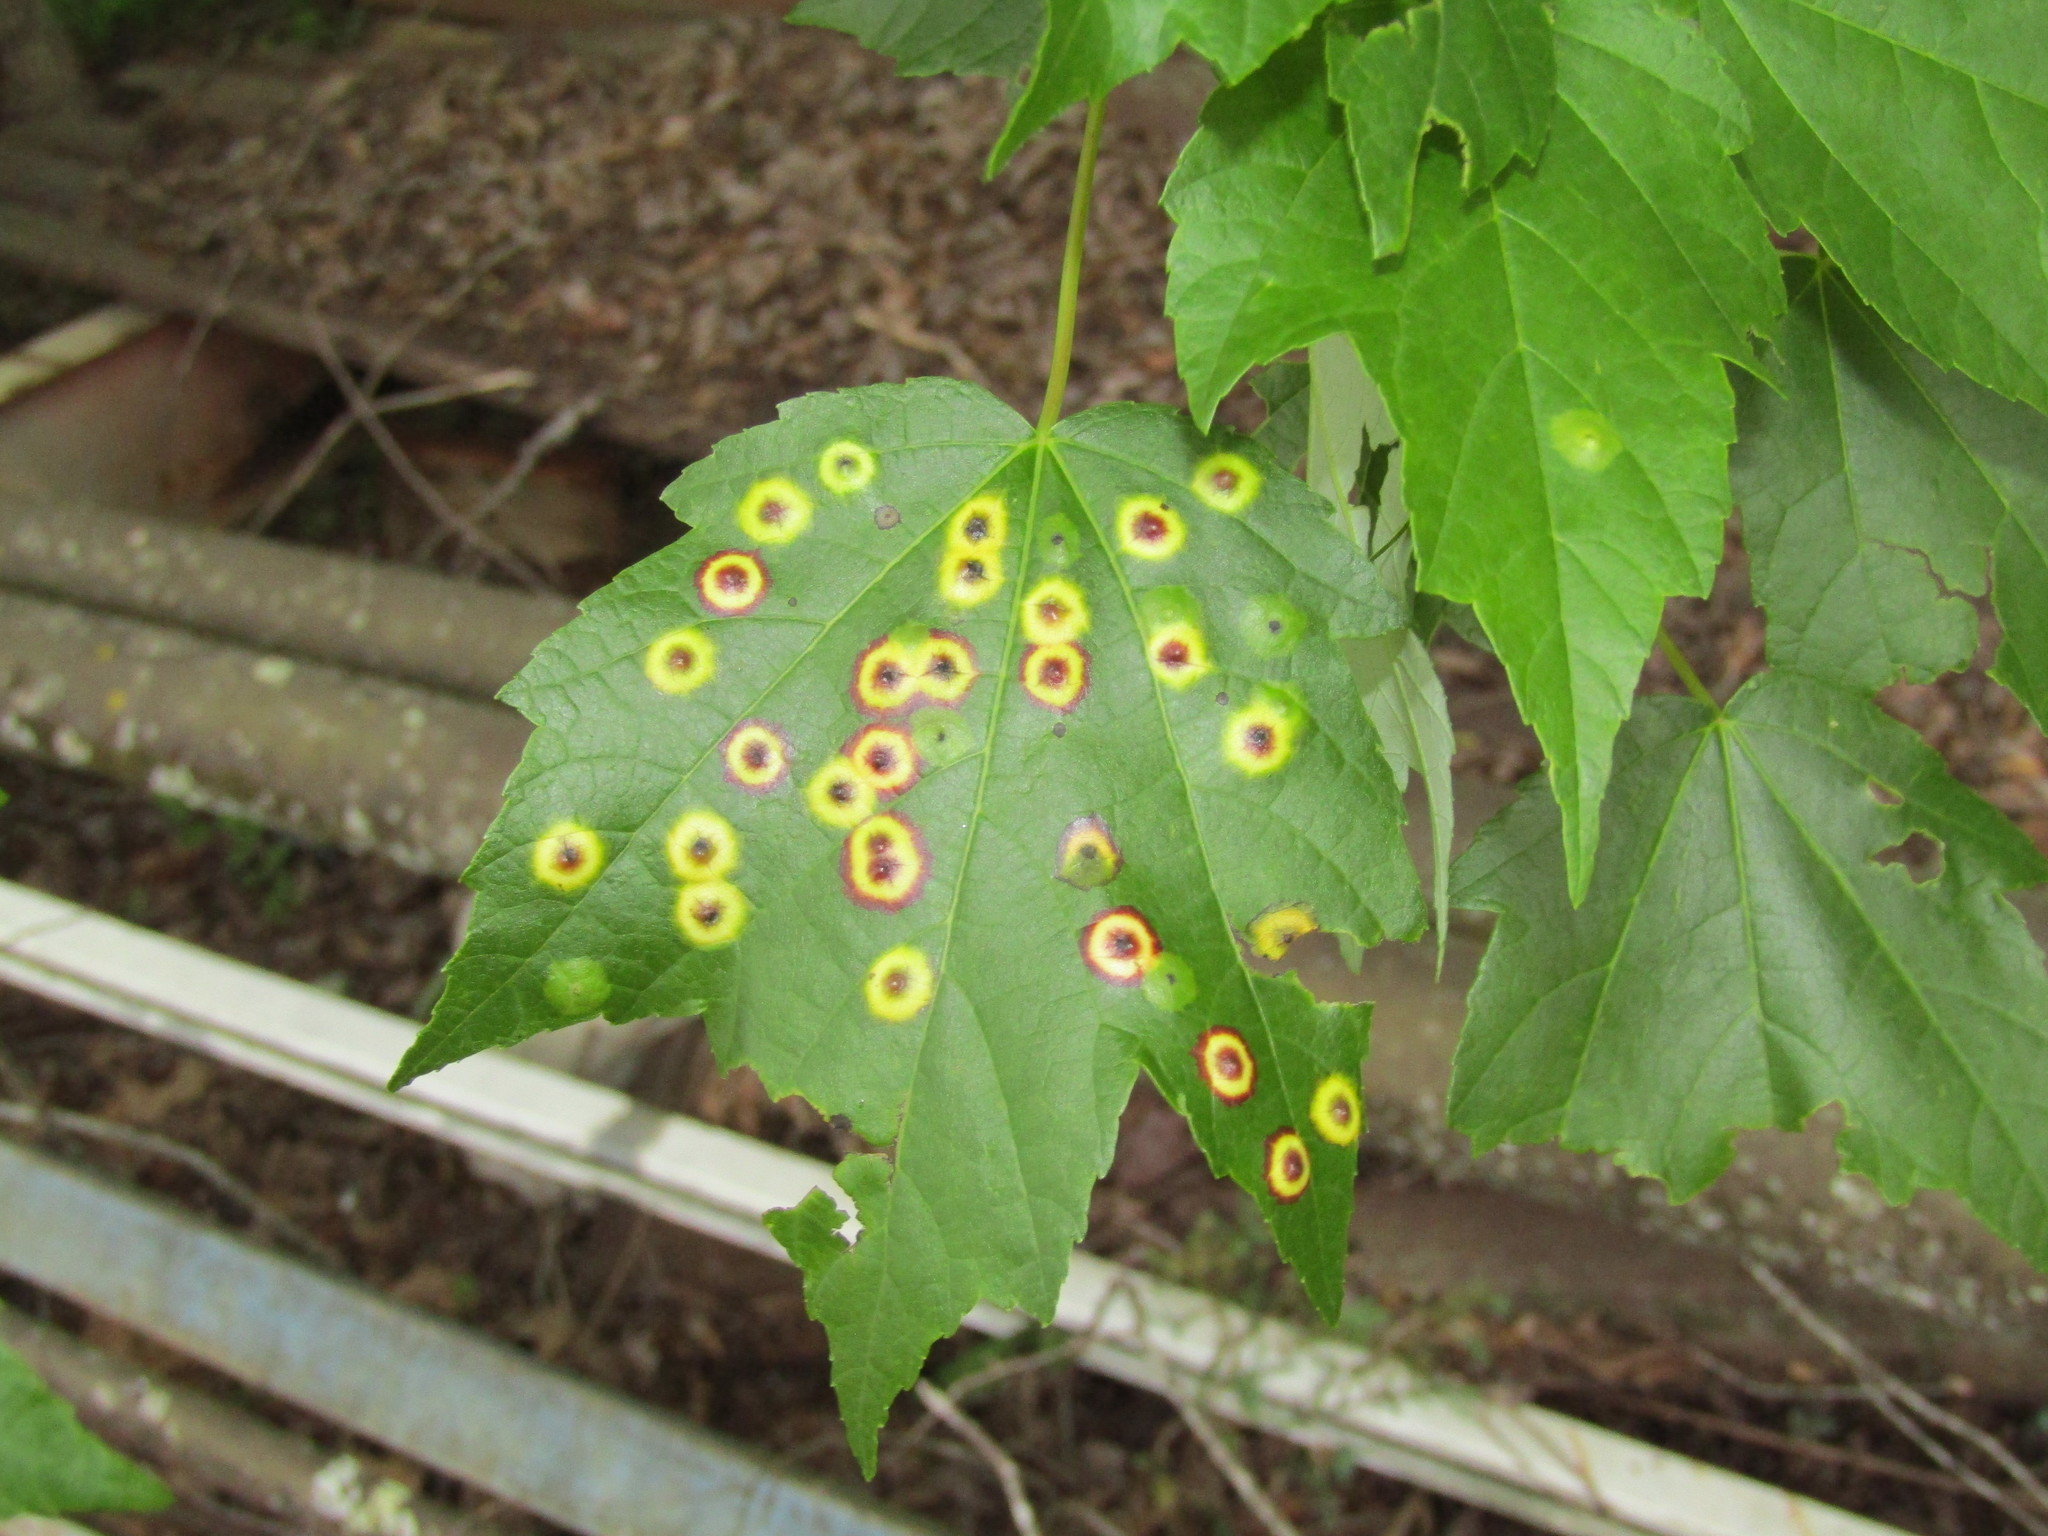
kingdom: Animalia
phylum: Arthropoda
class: Insecta
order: Diptera
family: Cecidomyiidae
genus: Acericecis
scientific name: Acericecis ocellaris
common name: Ocellate gall midge
